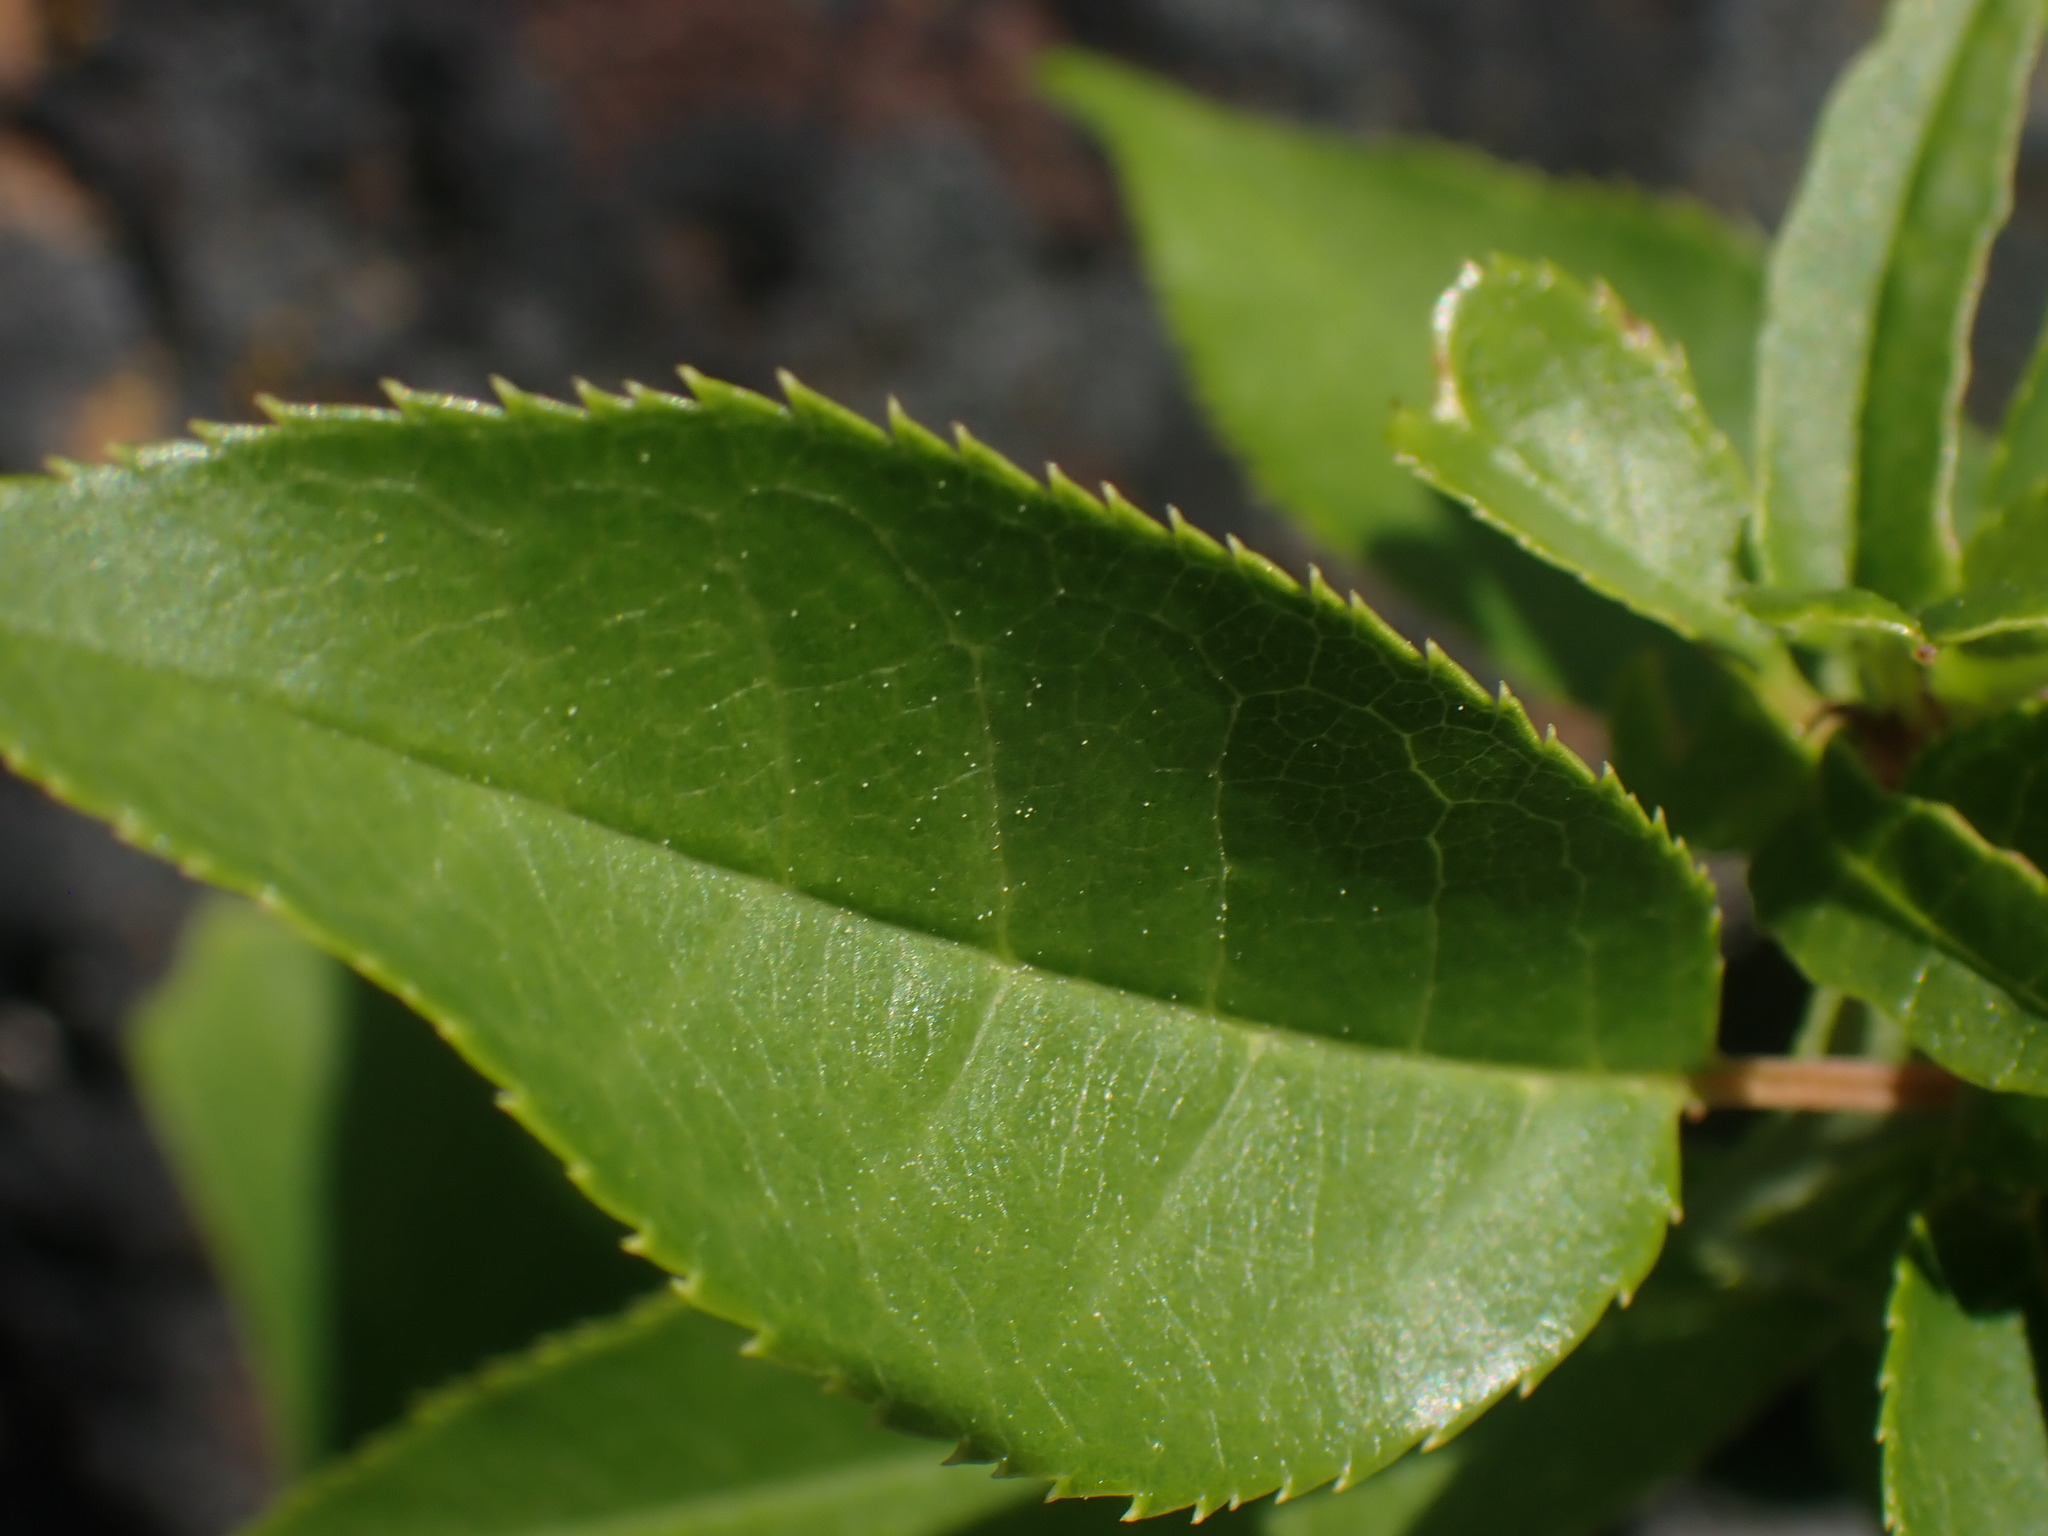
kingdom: Plantae
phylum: Tracheophyta
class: Magnoliopsida
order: Rosales
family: Rosaceae
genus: Prunus
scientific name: Prunus virginiana
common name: Chokecherry
